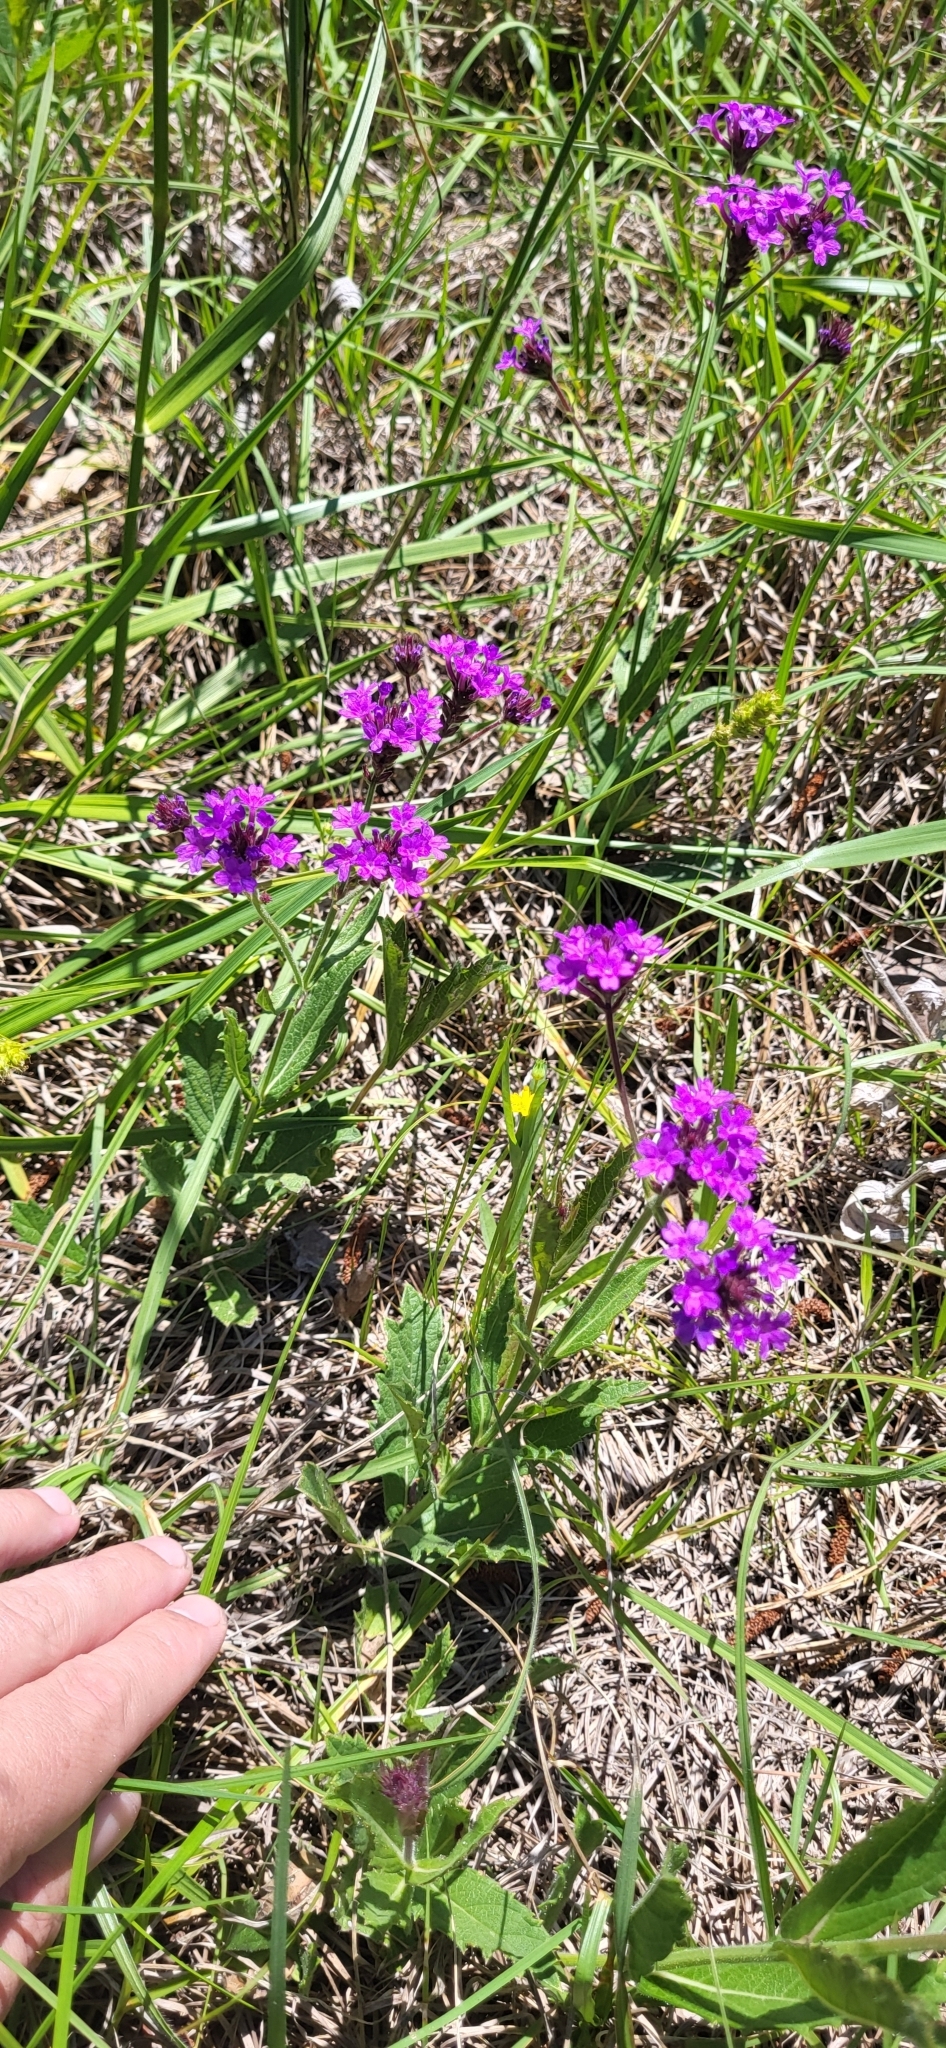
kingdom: Plantae
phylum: Tracheophyta
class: Magnoliopsida
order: Lamiales
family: Verbenaceae
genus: Verbena
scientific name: Verbena rigida
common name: Slender vervain
